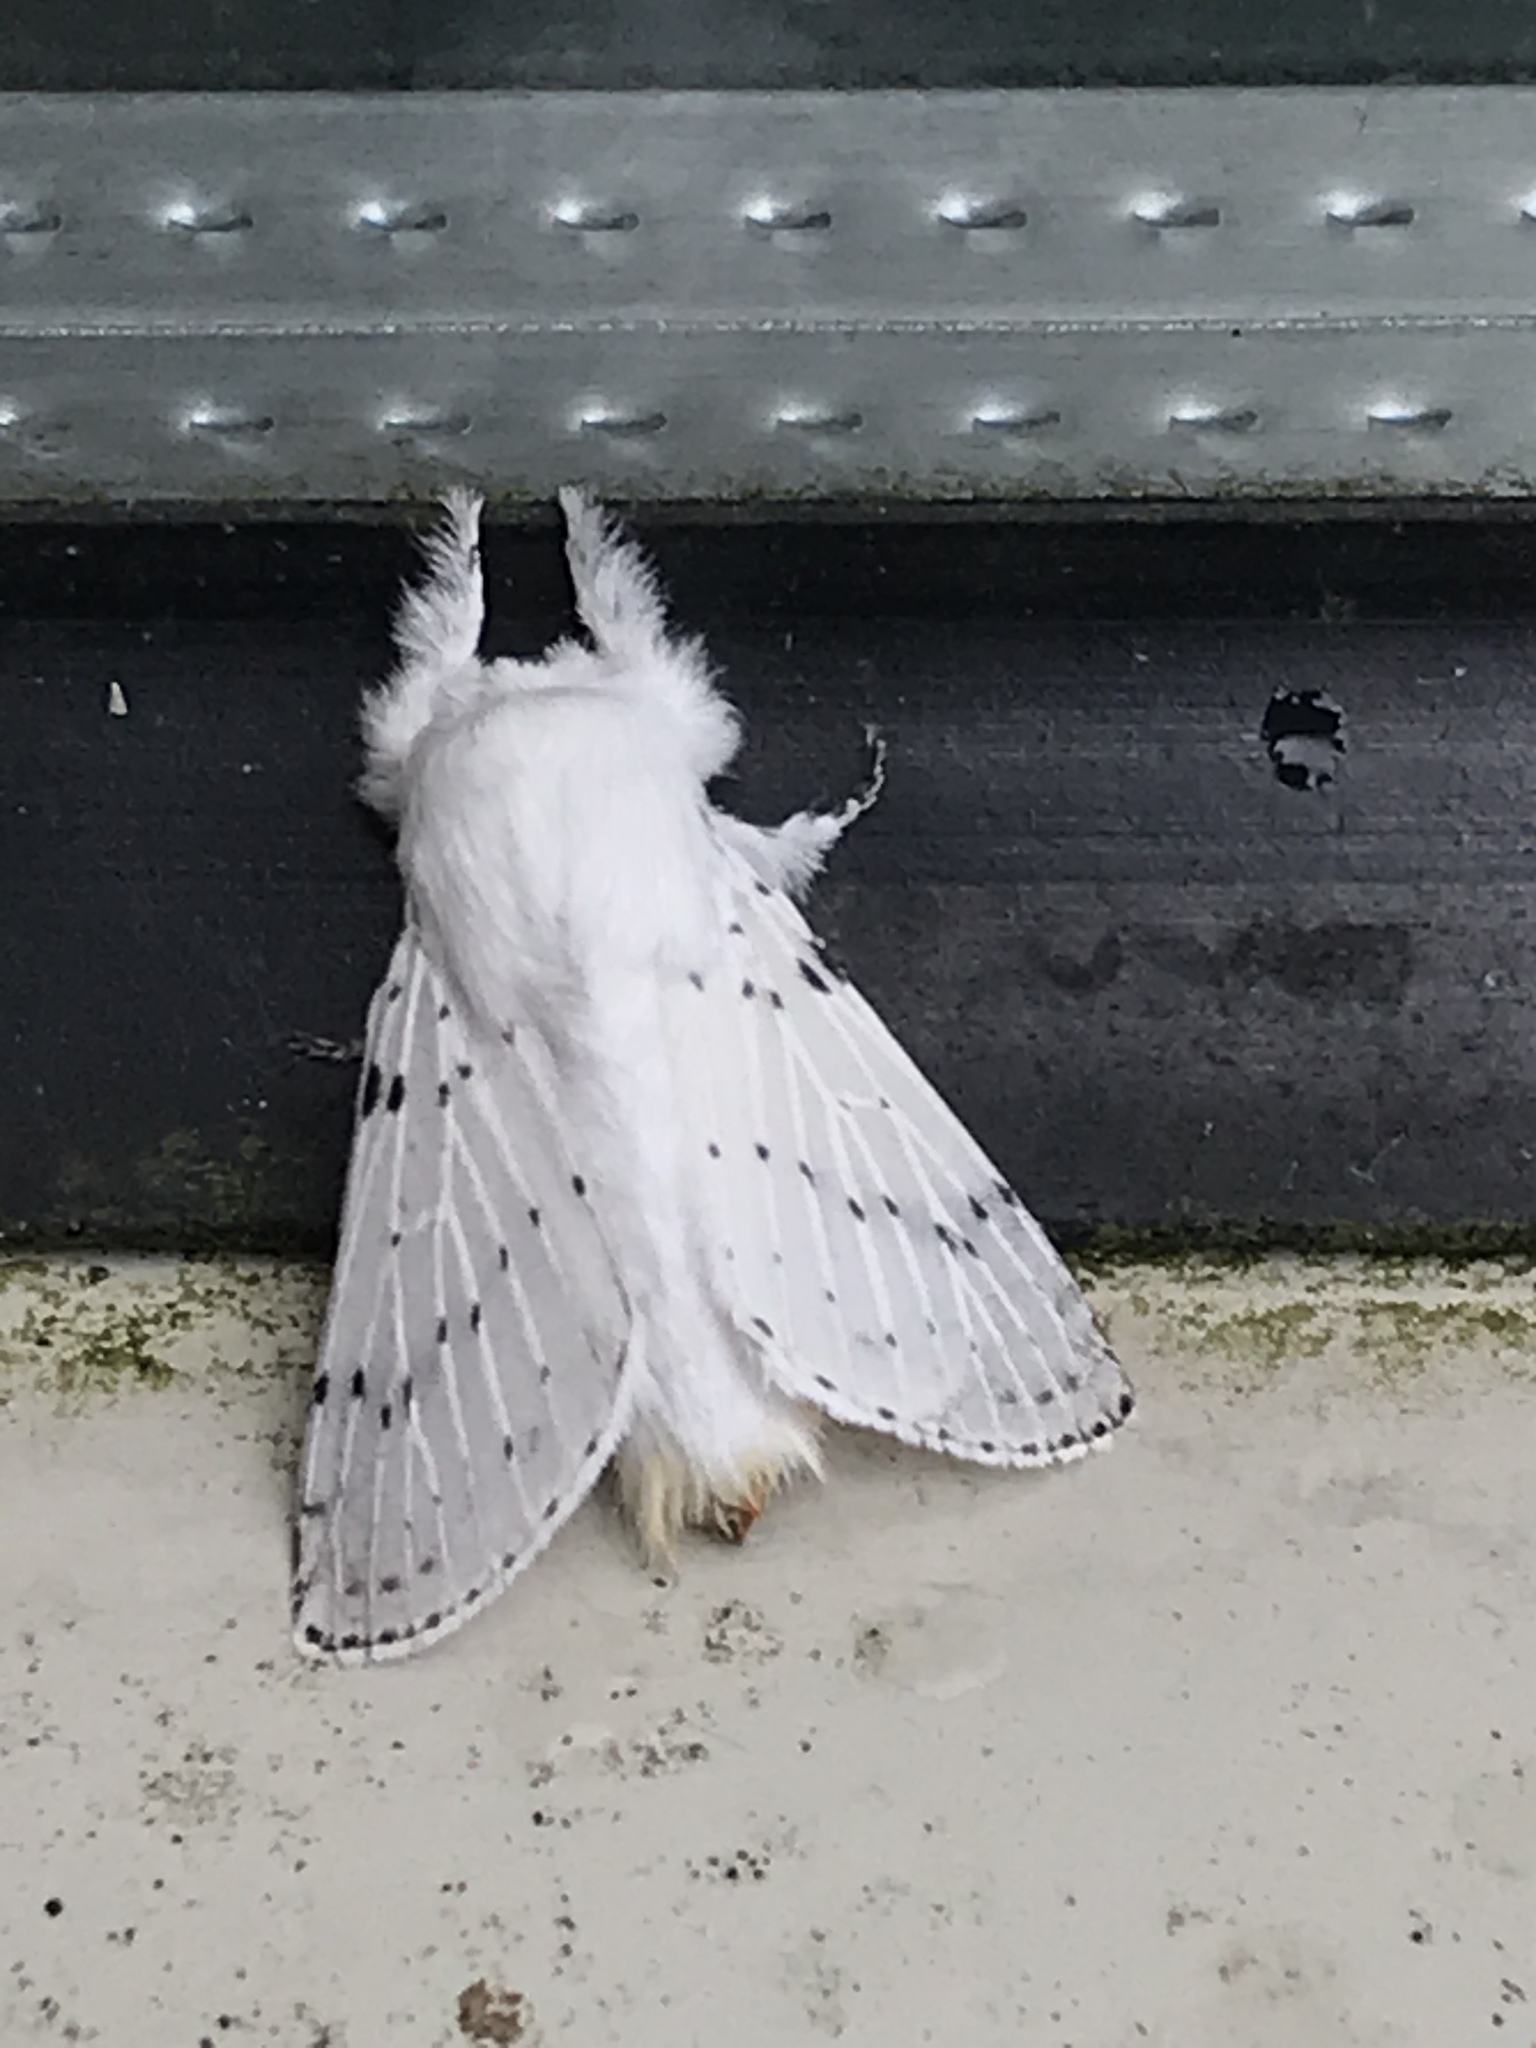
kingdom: Animalia
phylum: Arthropoda
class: Insecta
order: Lepidoptera
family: Lasiocampidae
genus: Artace
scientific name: Artace cribrarius
